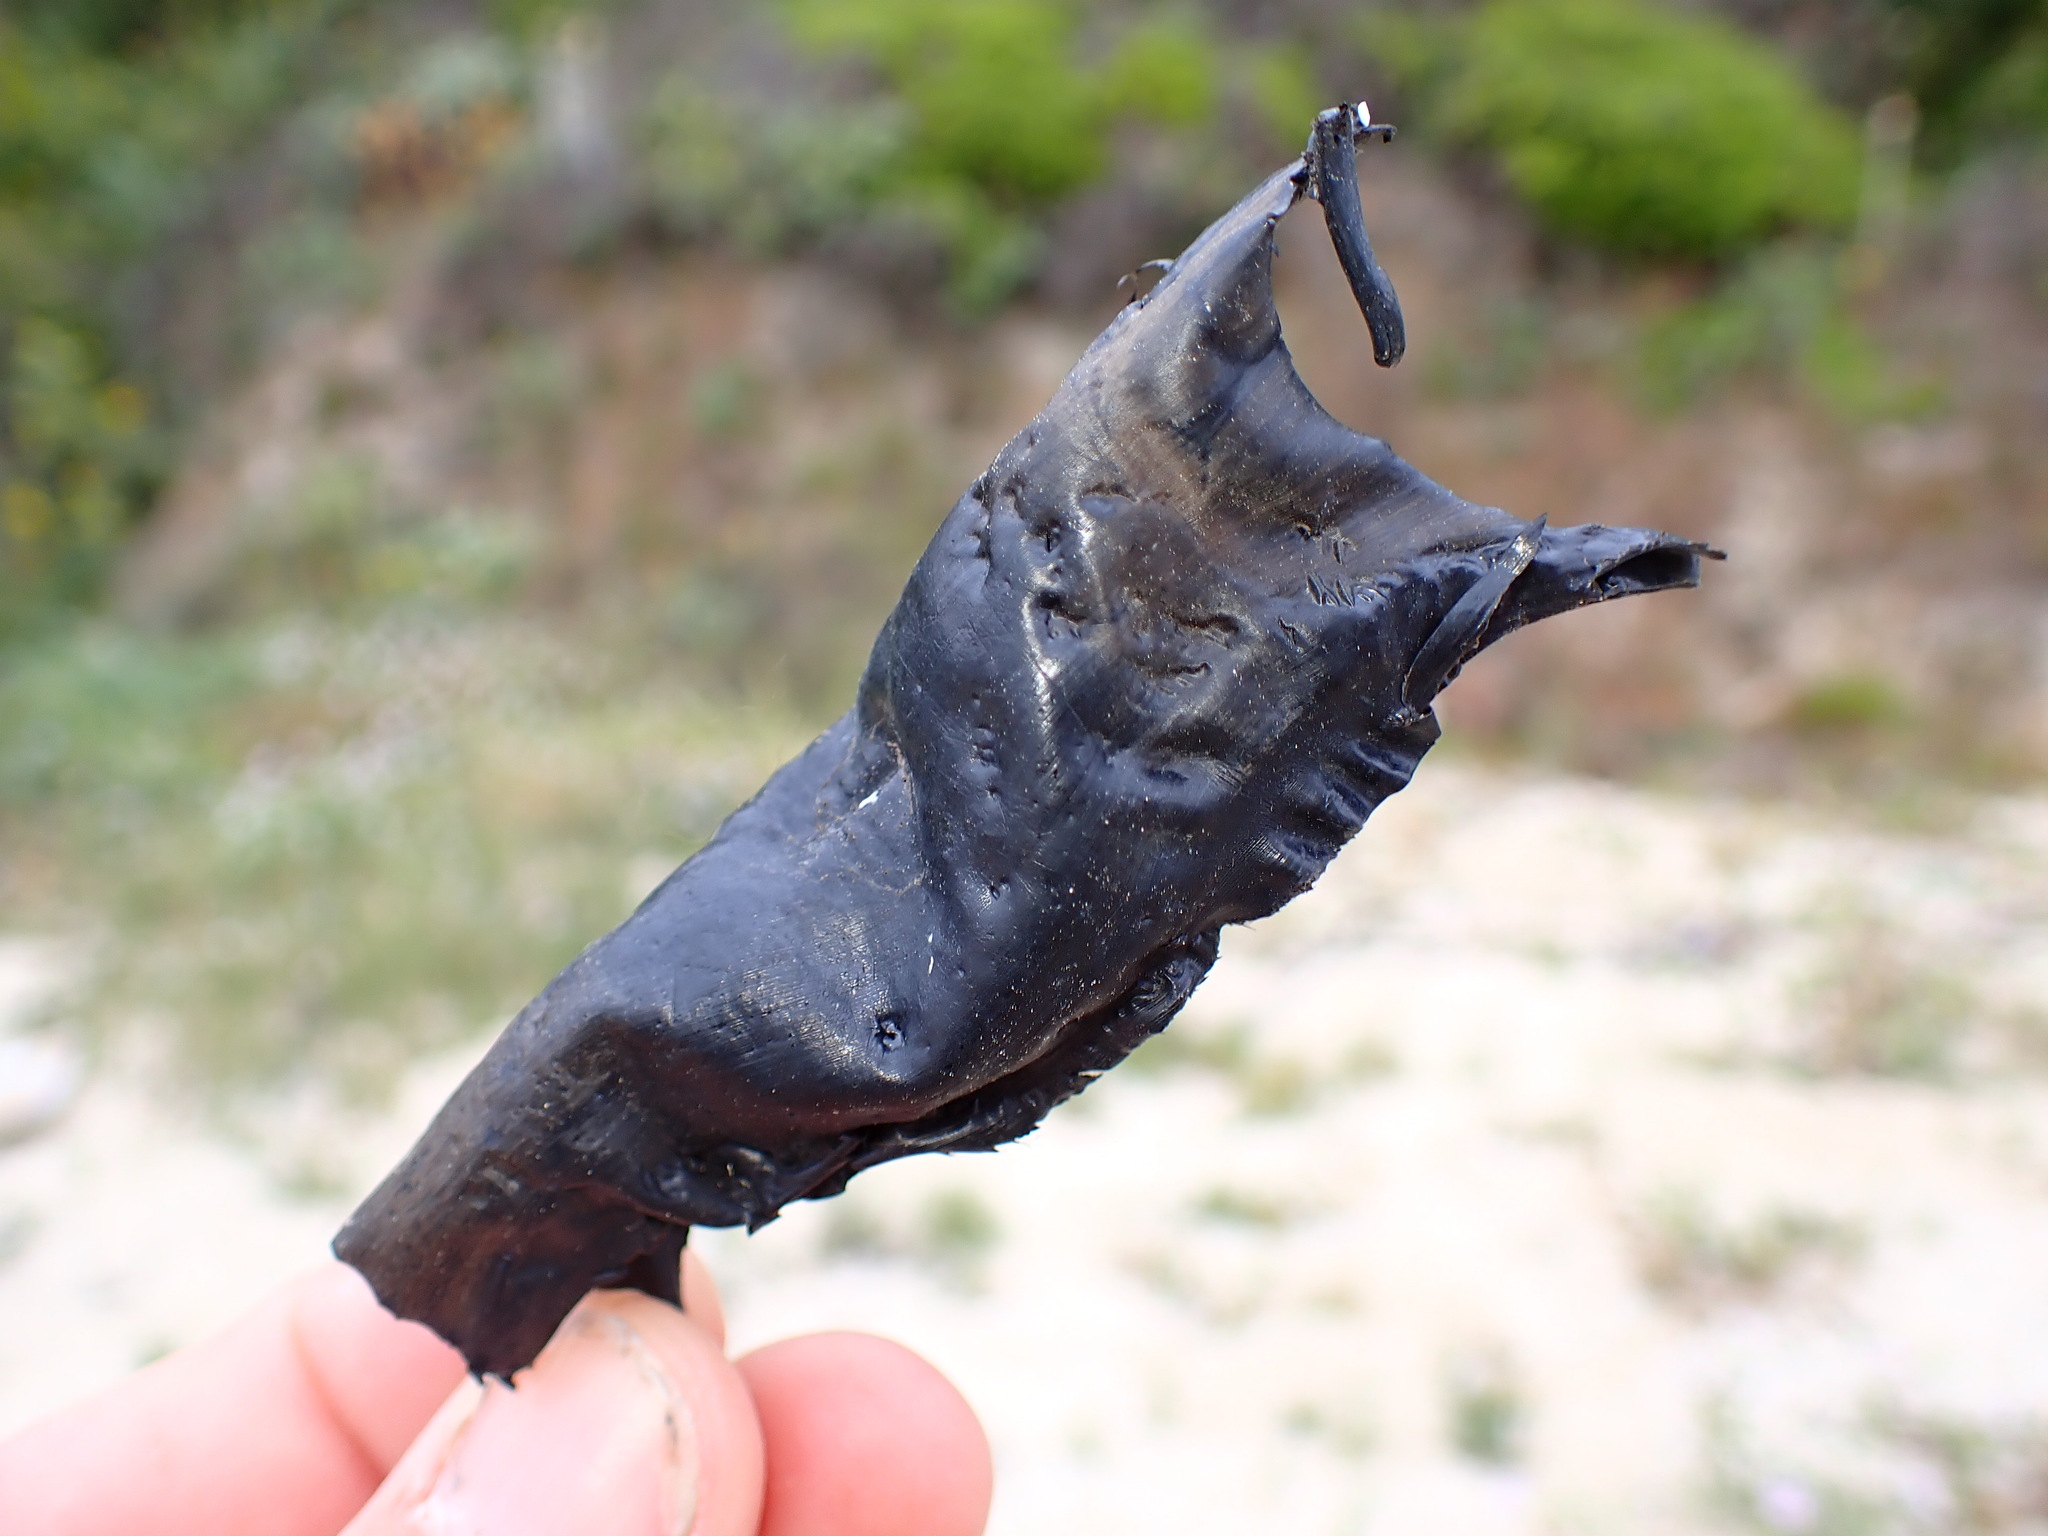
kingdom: Animalia
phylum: Chordata
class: Elasmobranchii
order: Rajiformes
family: Rajidae
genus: Caliraja
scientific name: Caliraja
